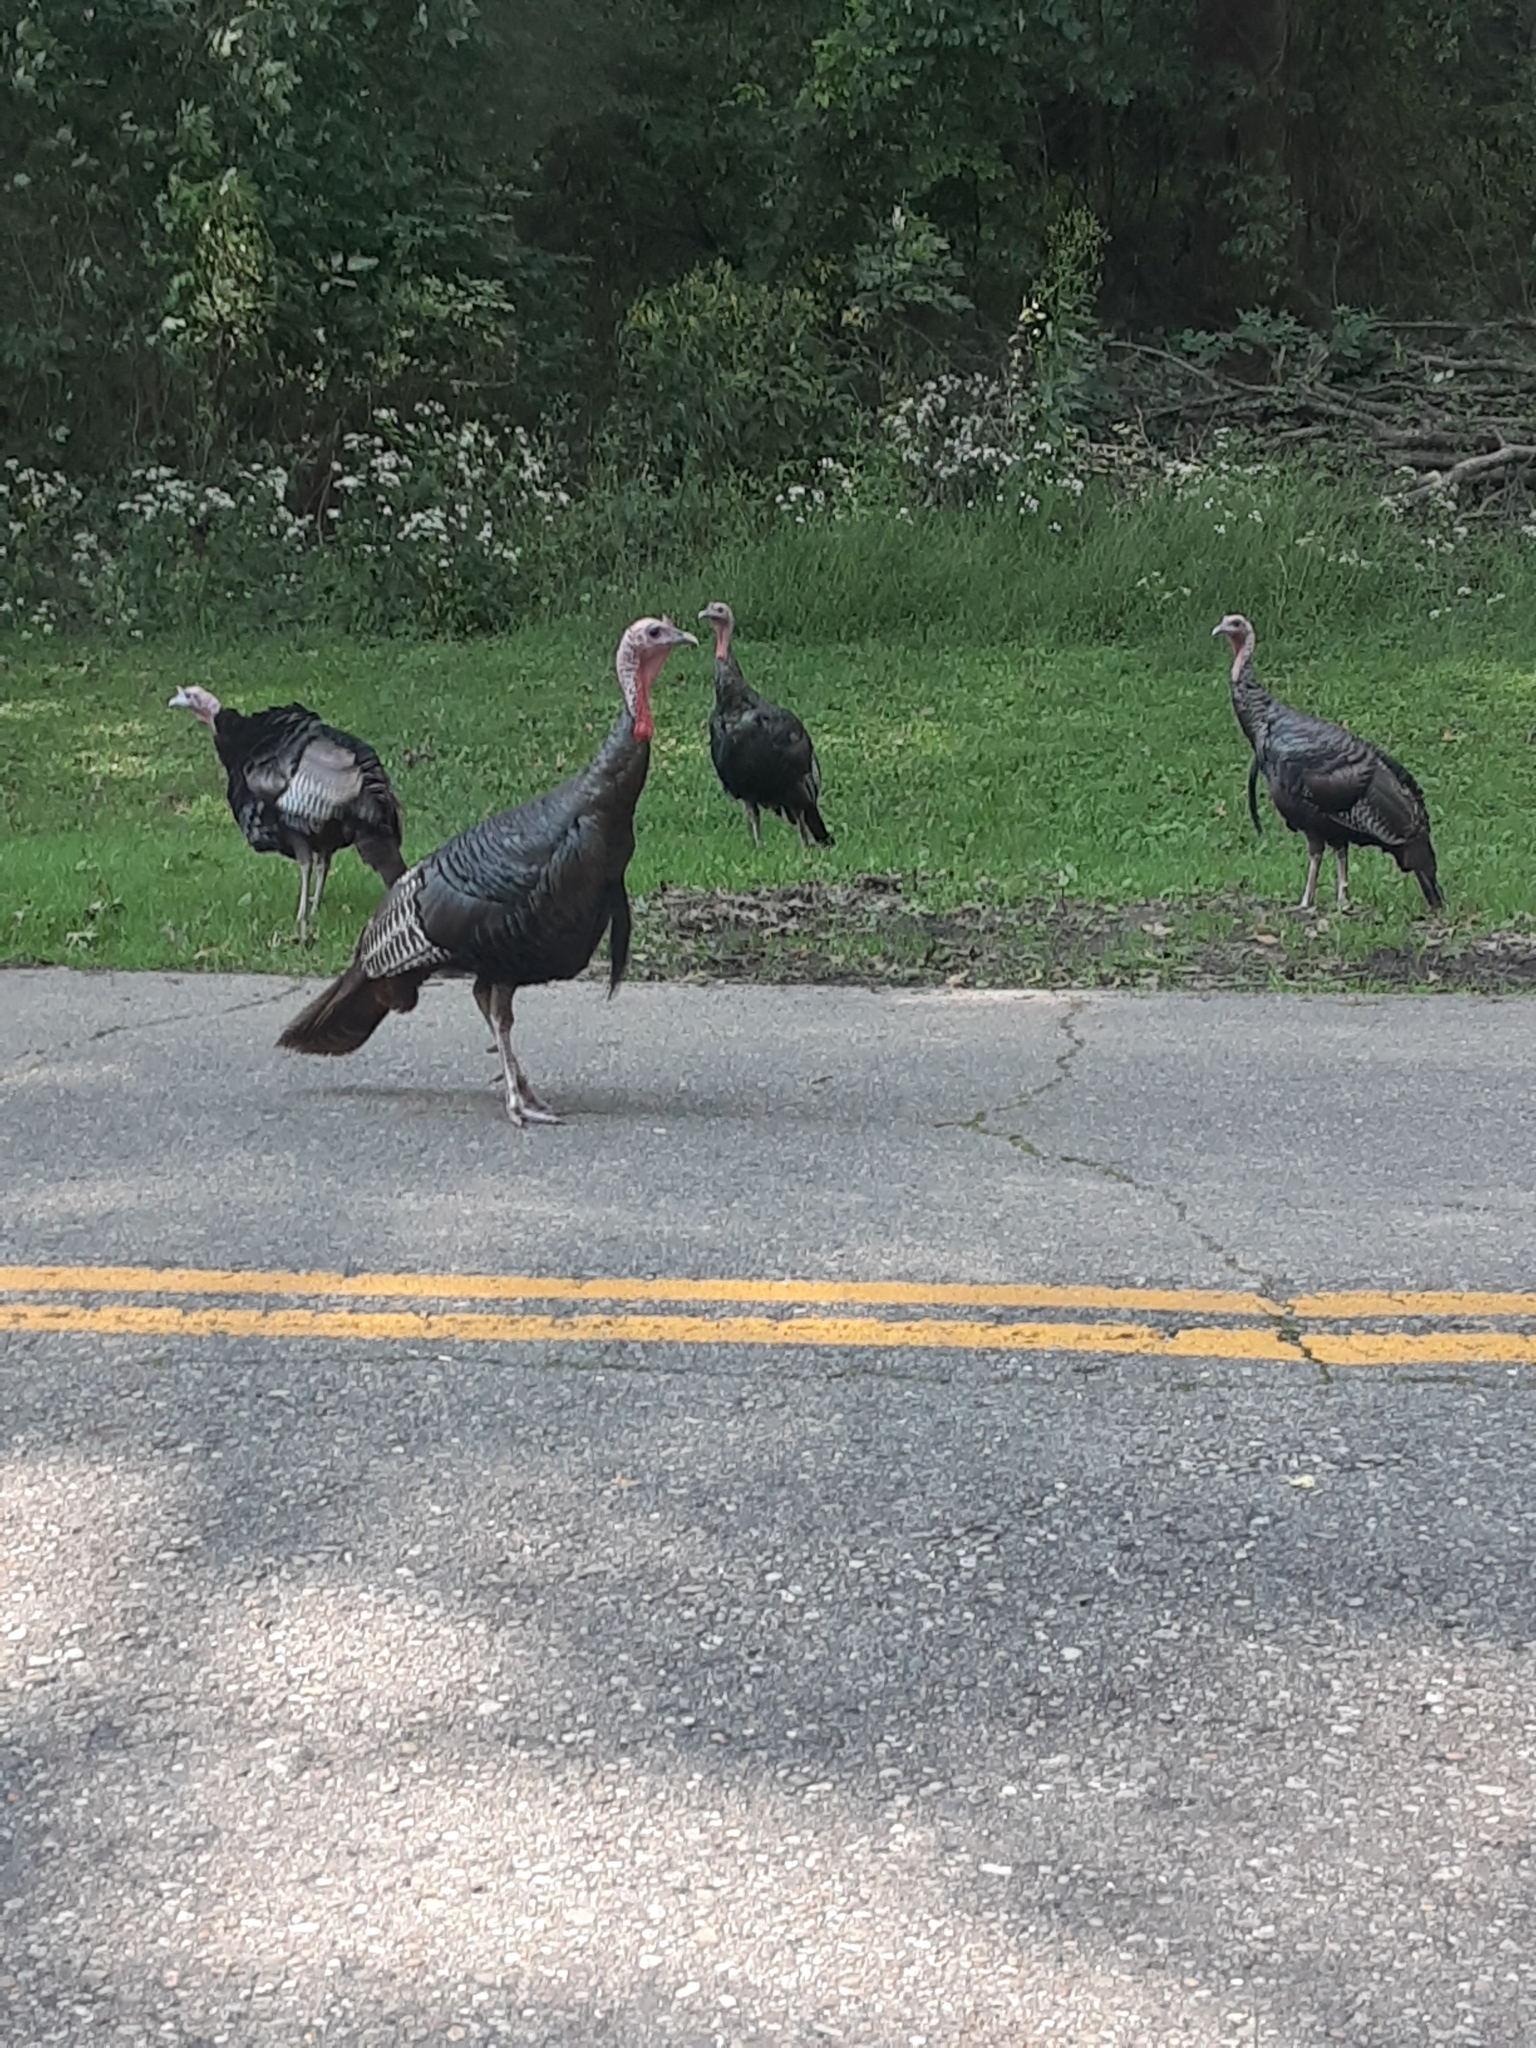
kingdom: Animalia
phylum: Chordata
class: Aves
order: Galliformes
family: Phasianidae
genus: Meleagris
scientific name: Meleagris gallopavo
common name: Wild turkey
